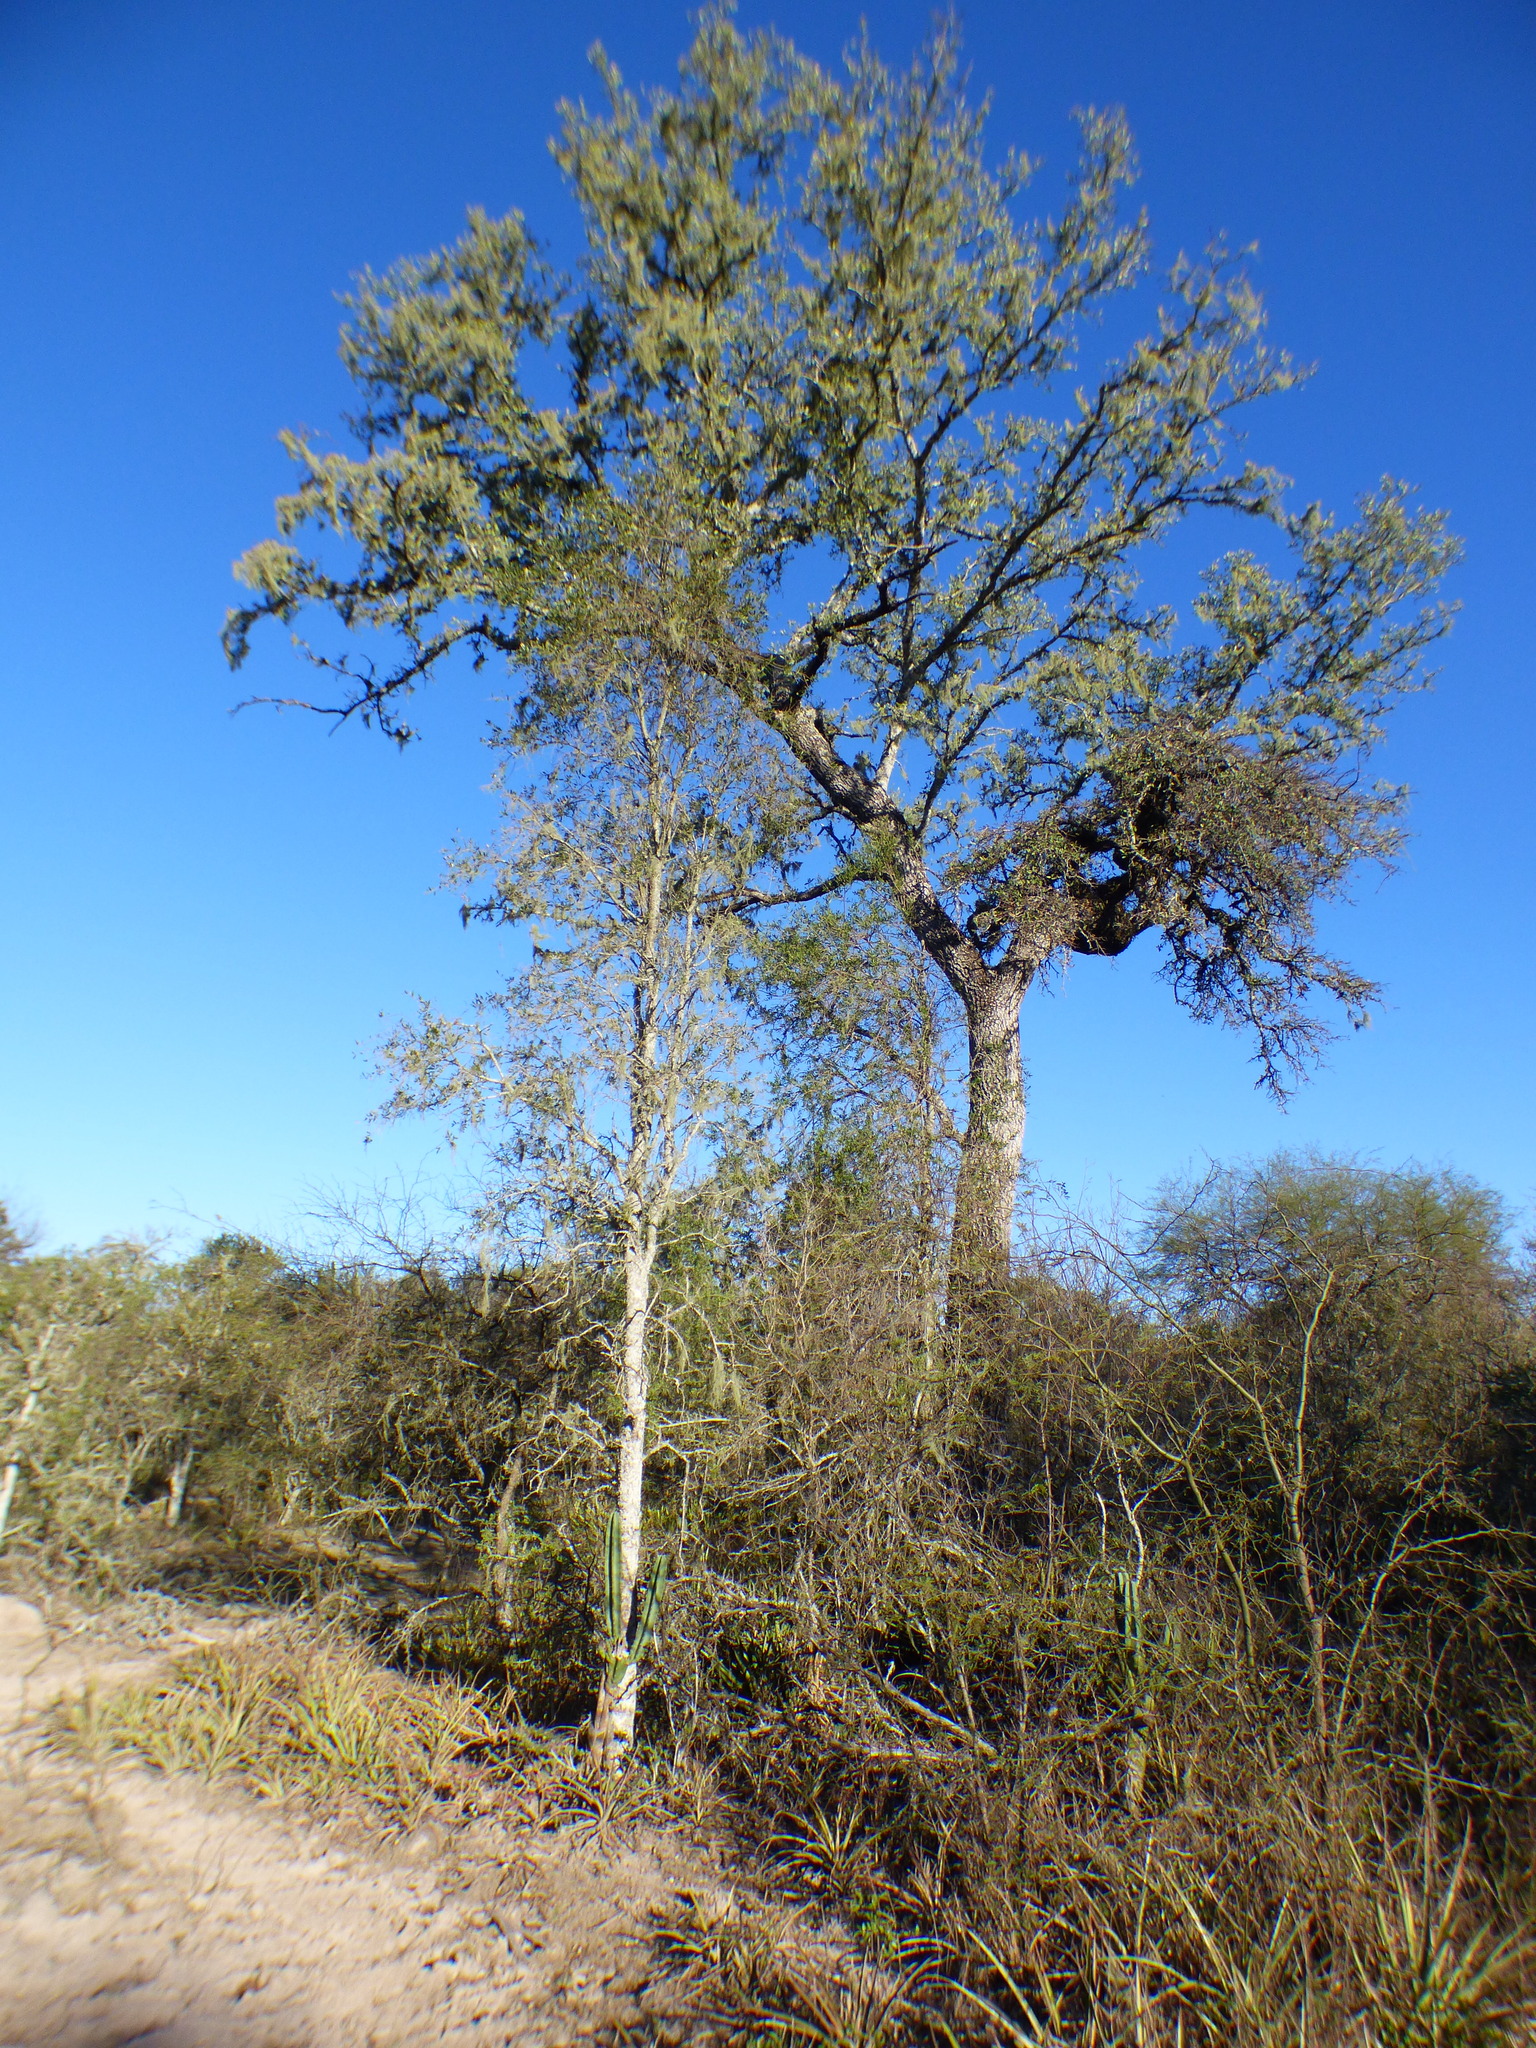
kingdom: Plantae
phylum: Tracheophyta
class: Magnoliopsida
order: Sapindales
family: Anacardiaceae
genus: Schinopsis
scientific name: Schinopsis balansae
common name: Red quebracho
